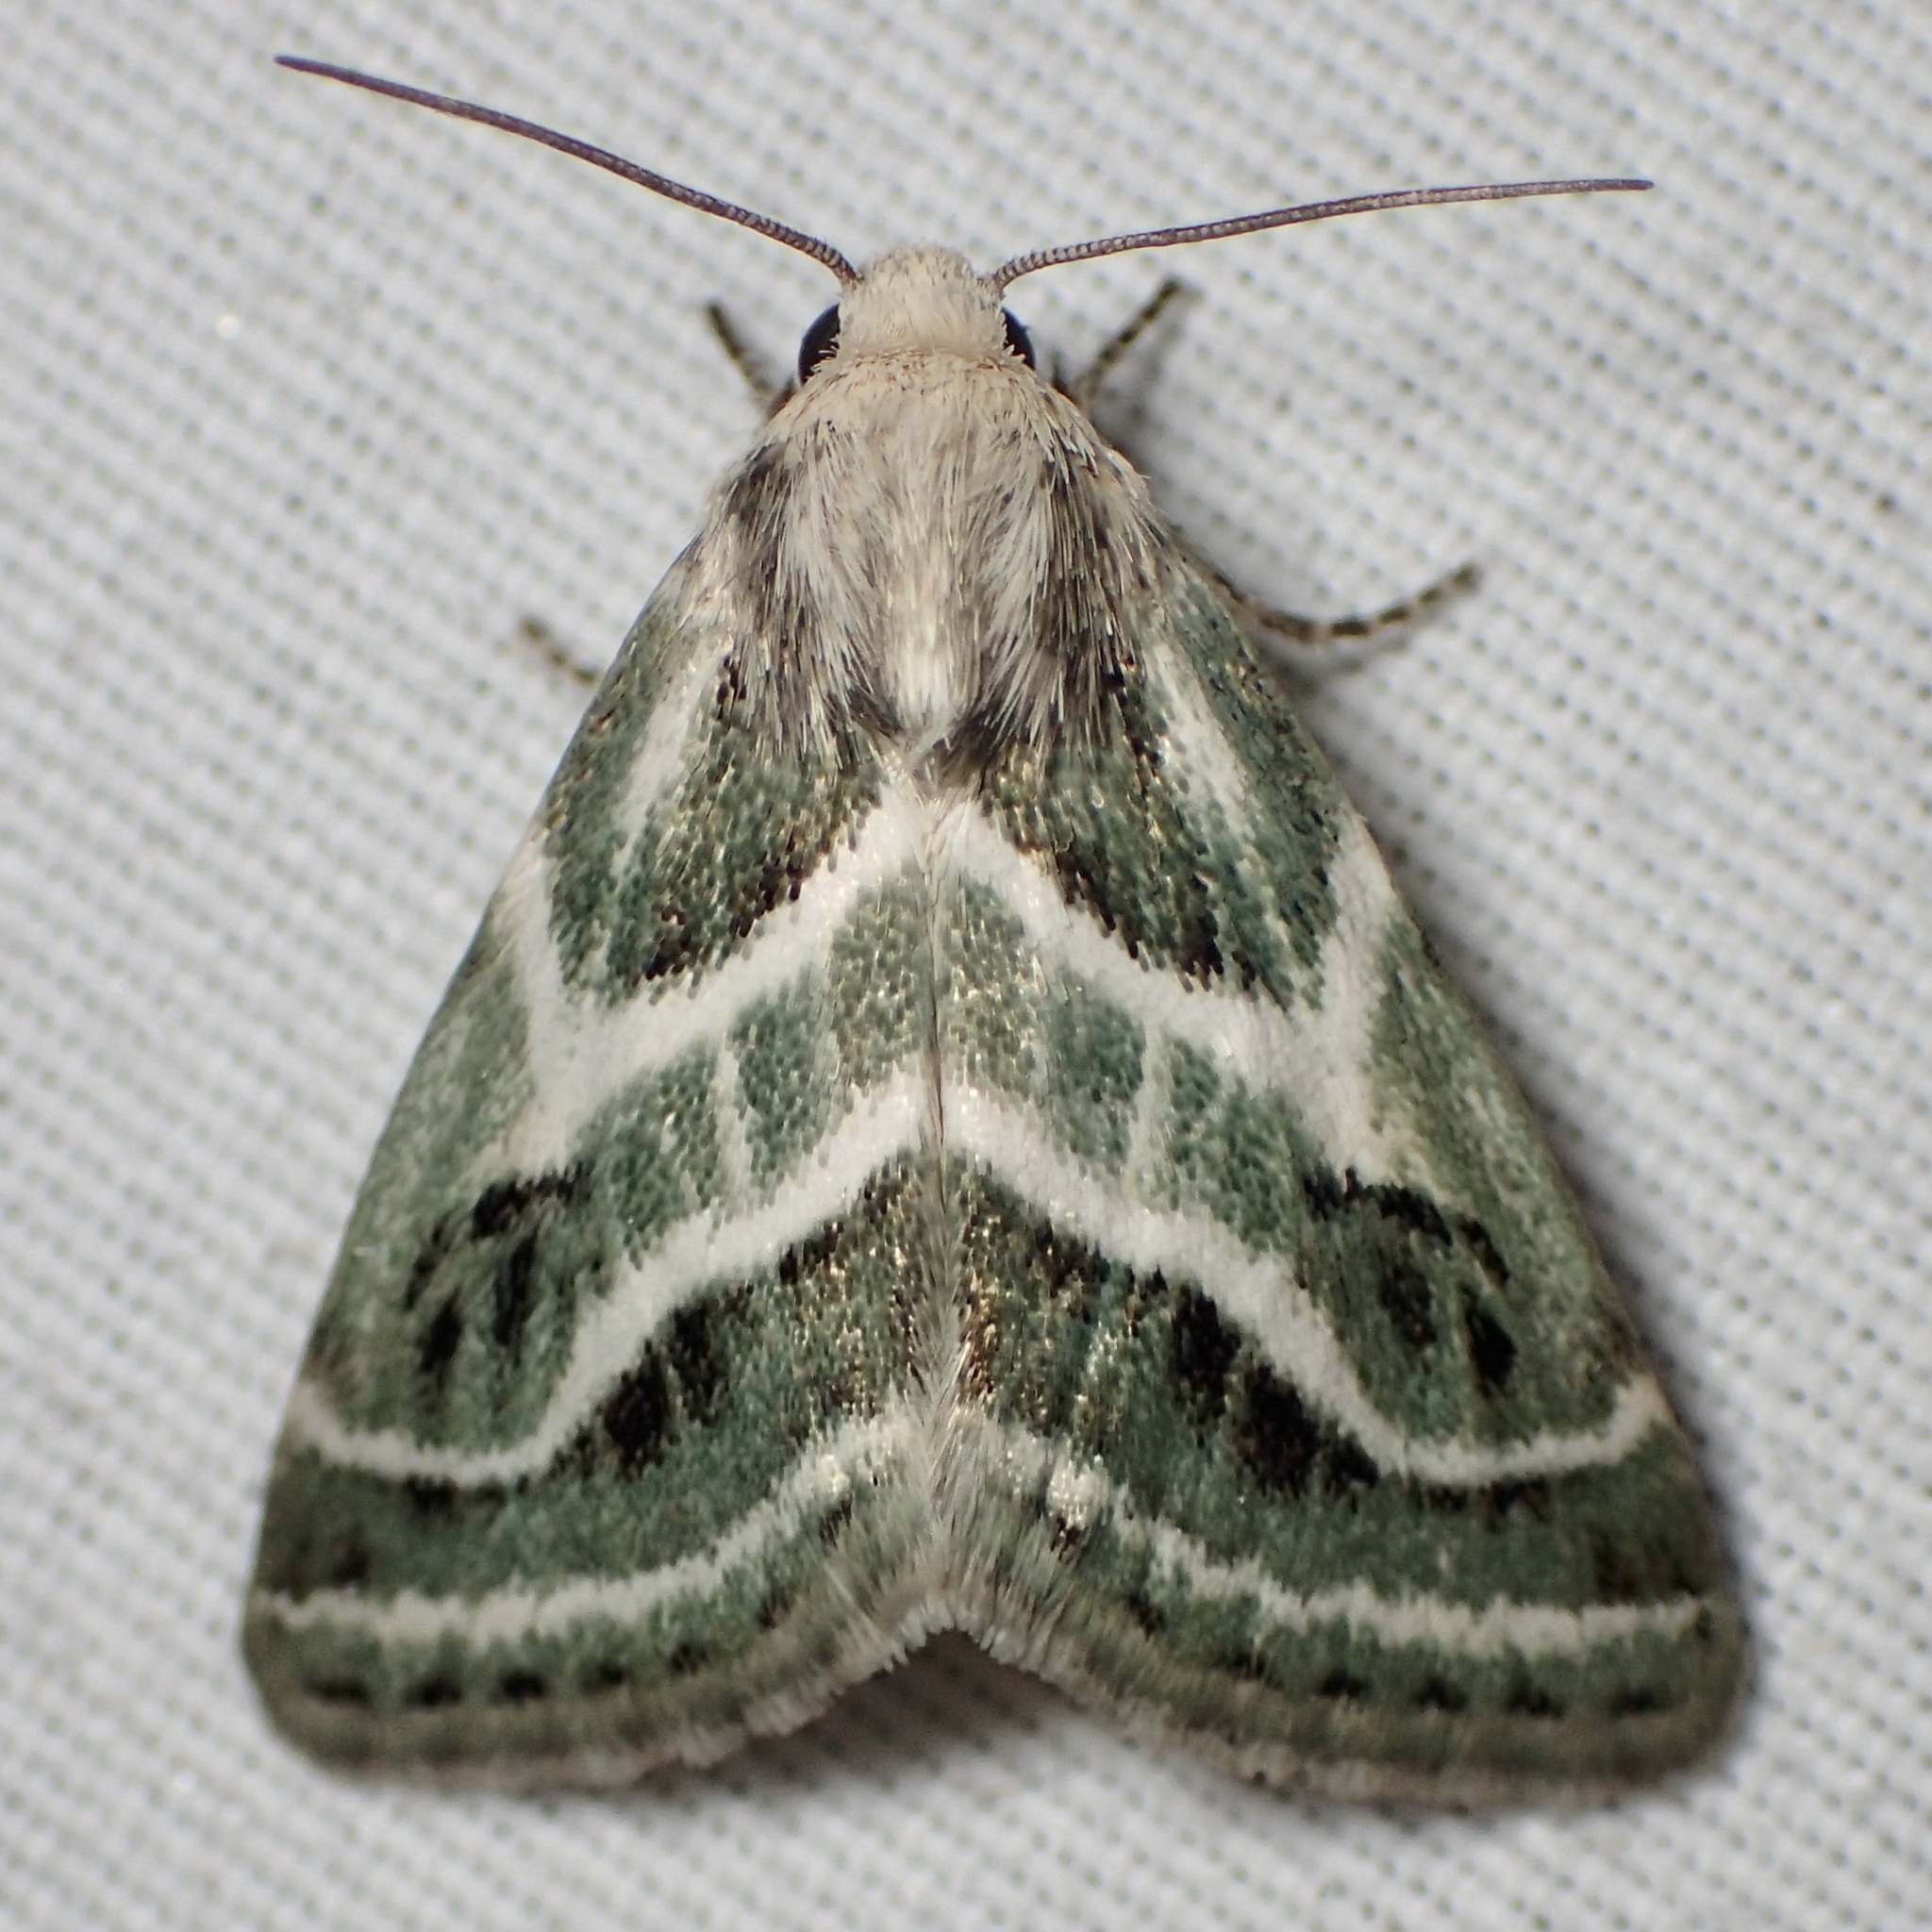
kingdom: Animalia
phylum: Arthropoda
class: Insecta
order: Lepidoptera
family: Noctuidae
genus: Schinia
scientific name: Schinia accessa
